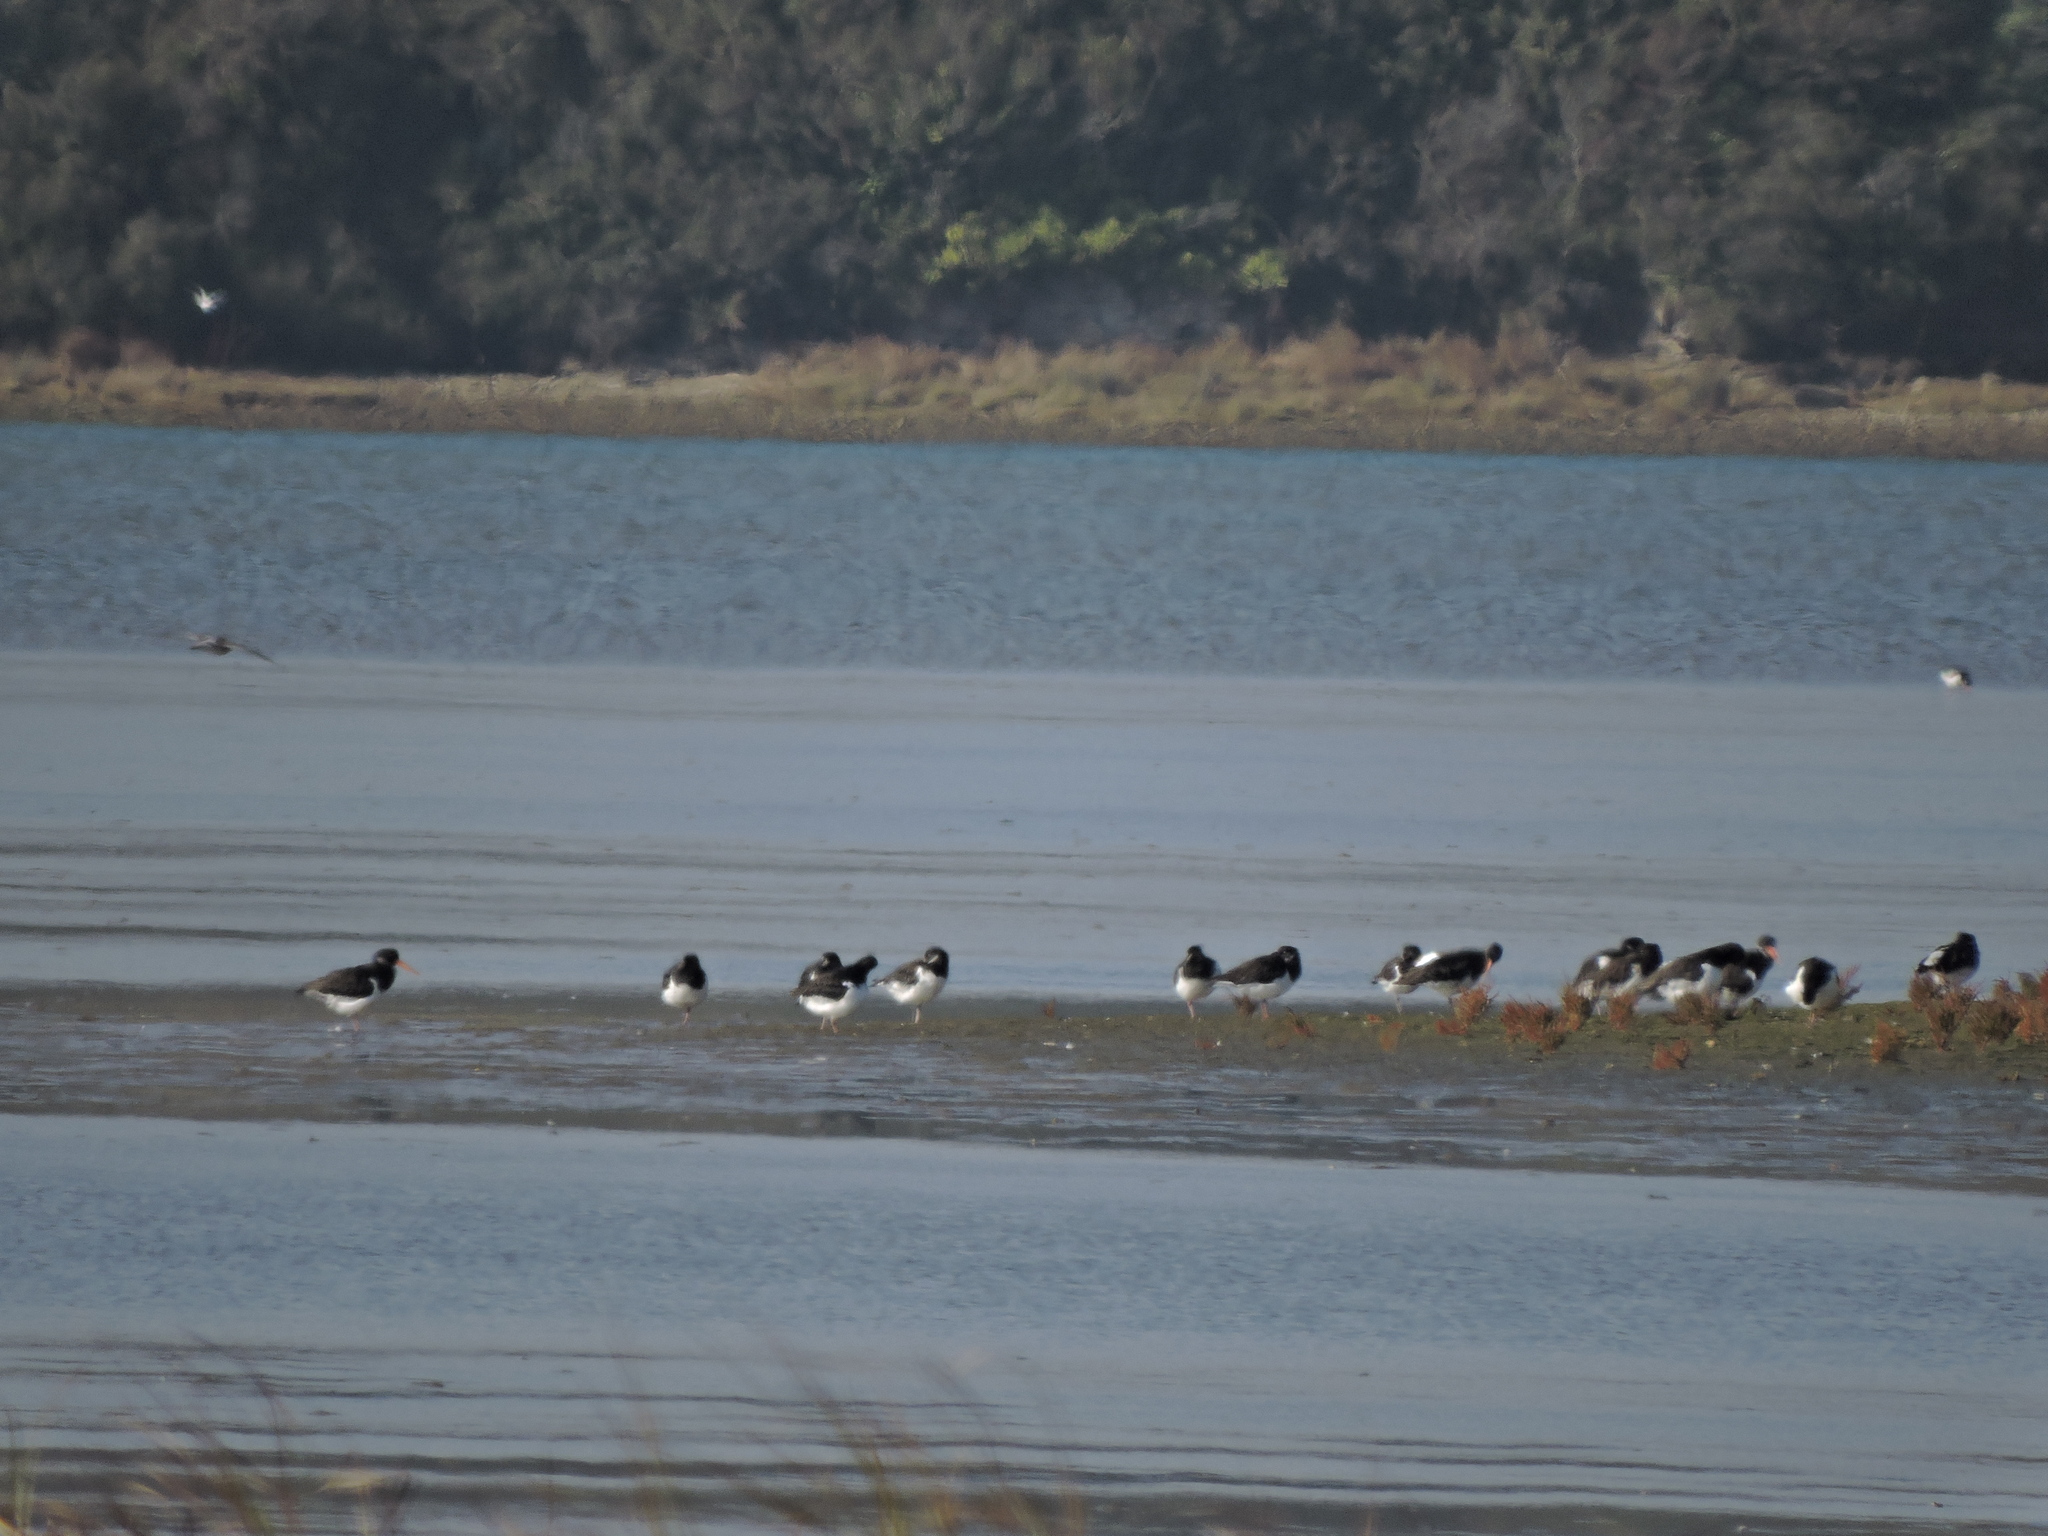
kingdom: Animalia
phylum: Chordata
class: Aves
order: Charadriiformes
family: Haematopodidae
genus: Haematopus
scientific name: Haematopus ostralegus
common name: Eurasian oystercatcher
